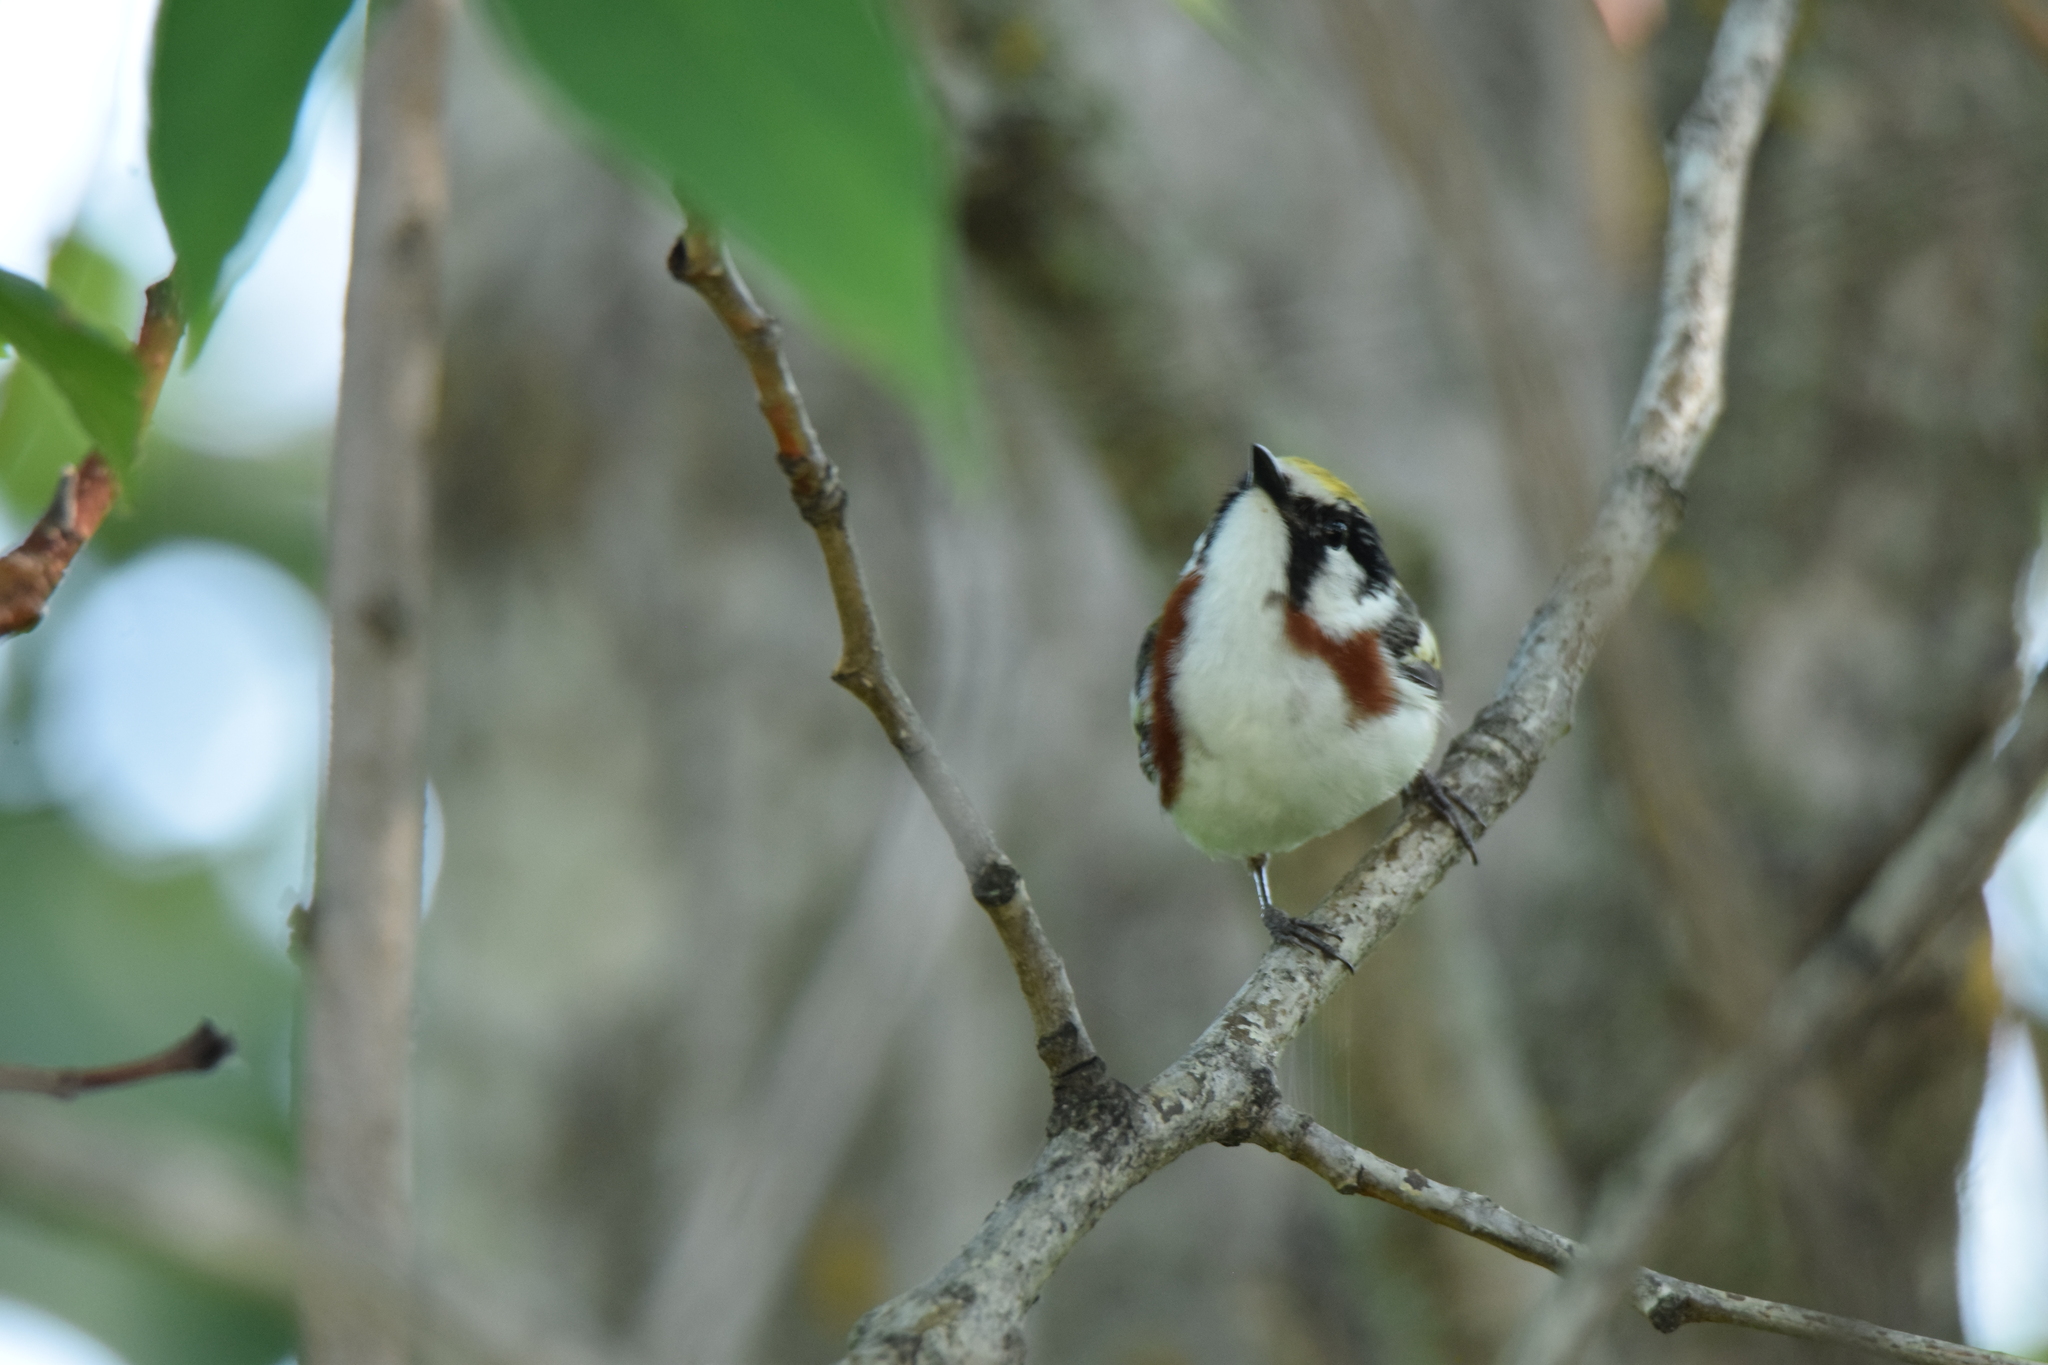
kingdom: Animalia
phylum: Chordata
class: Aves
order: Passeriformes
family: Parulidae
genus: Setophaga
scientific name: Setophaga pensylvanica
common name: Chestnut-sided warbler
